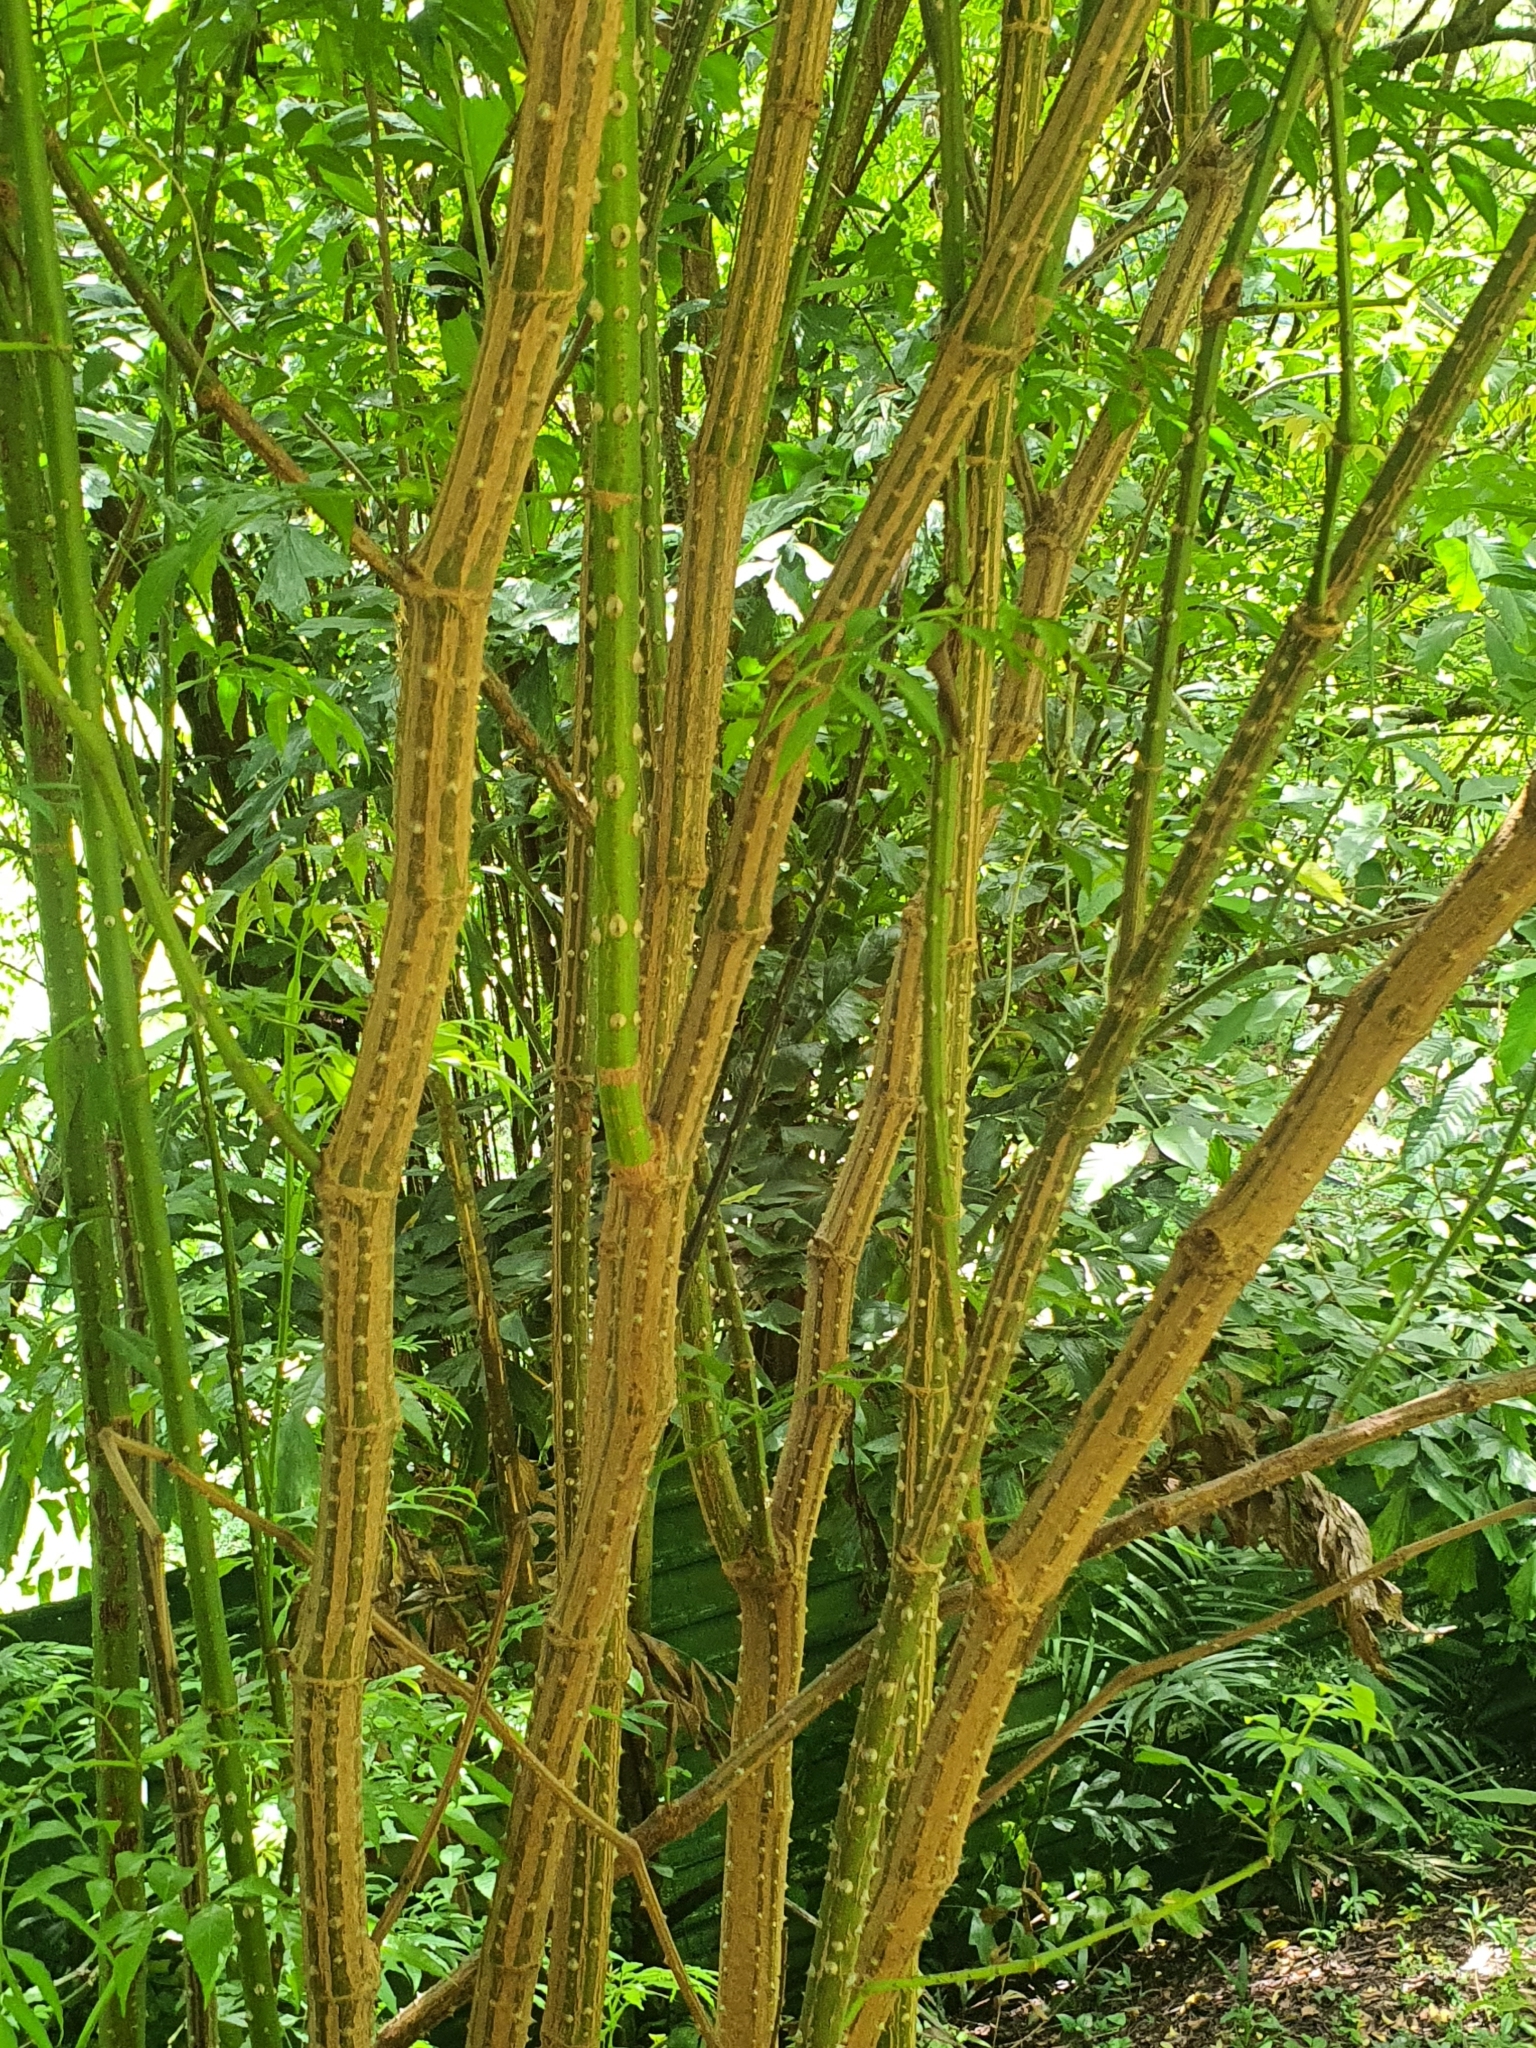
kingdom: Plantae
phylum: Tracheophyta
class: Magnoliopsida
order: Vitales
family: Vitaceae
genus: Leea
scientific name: Leea angulata
